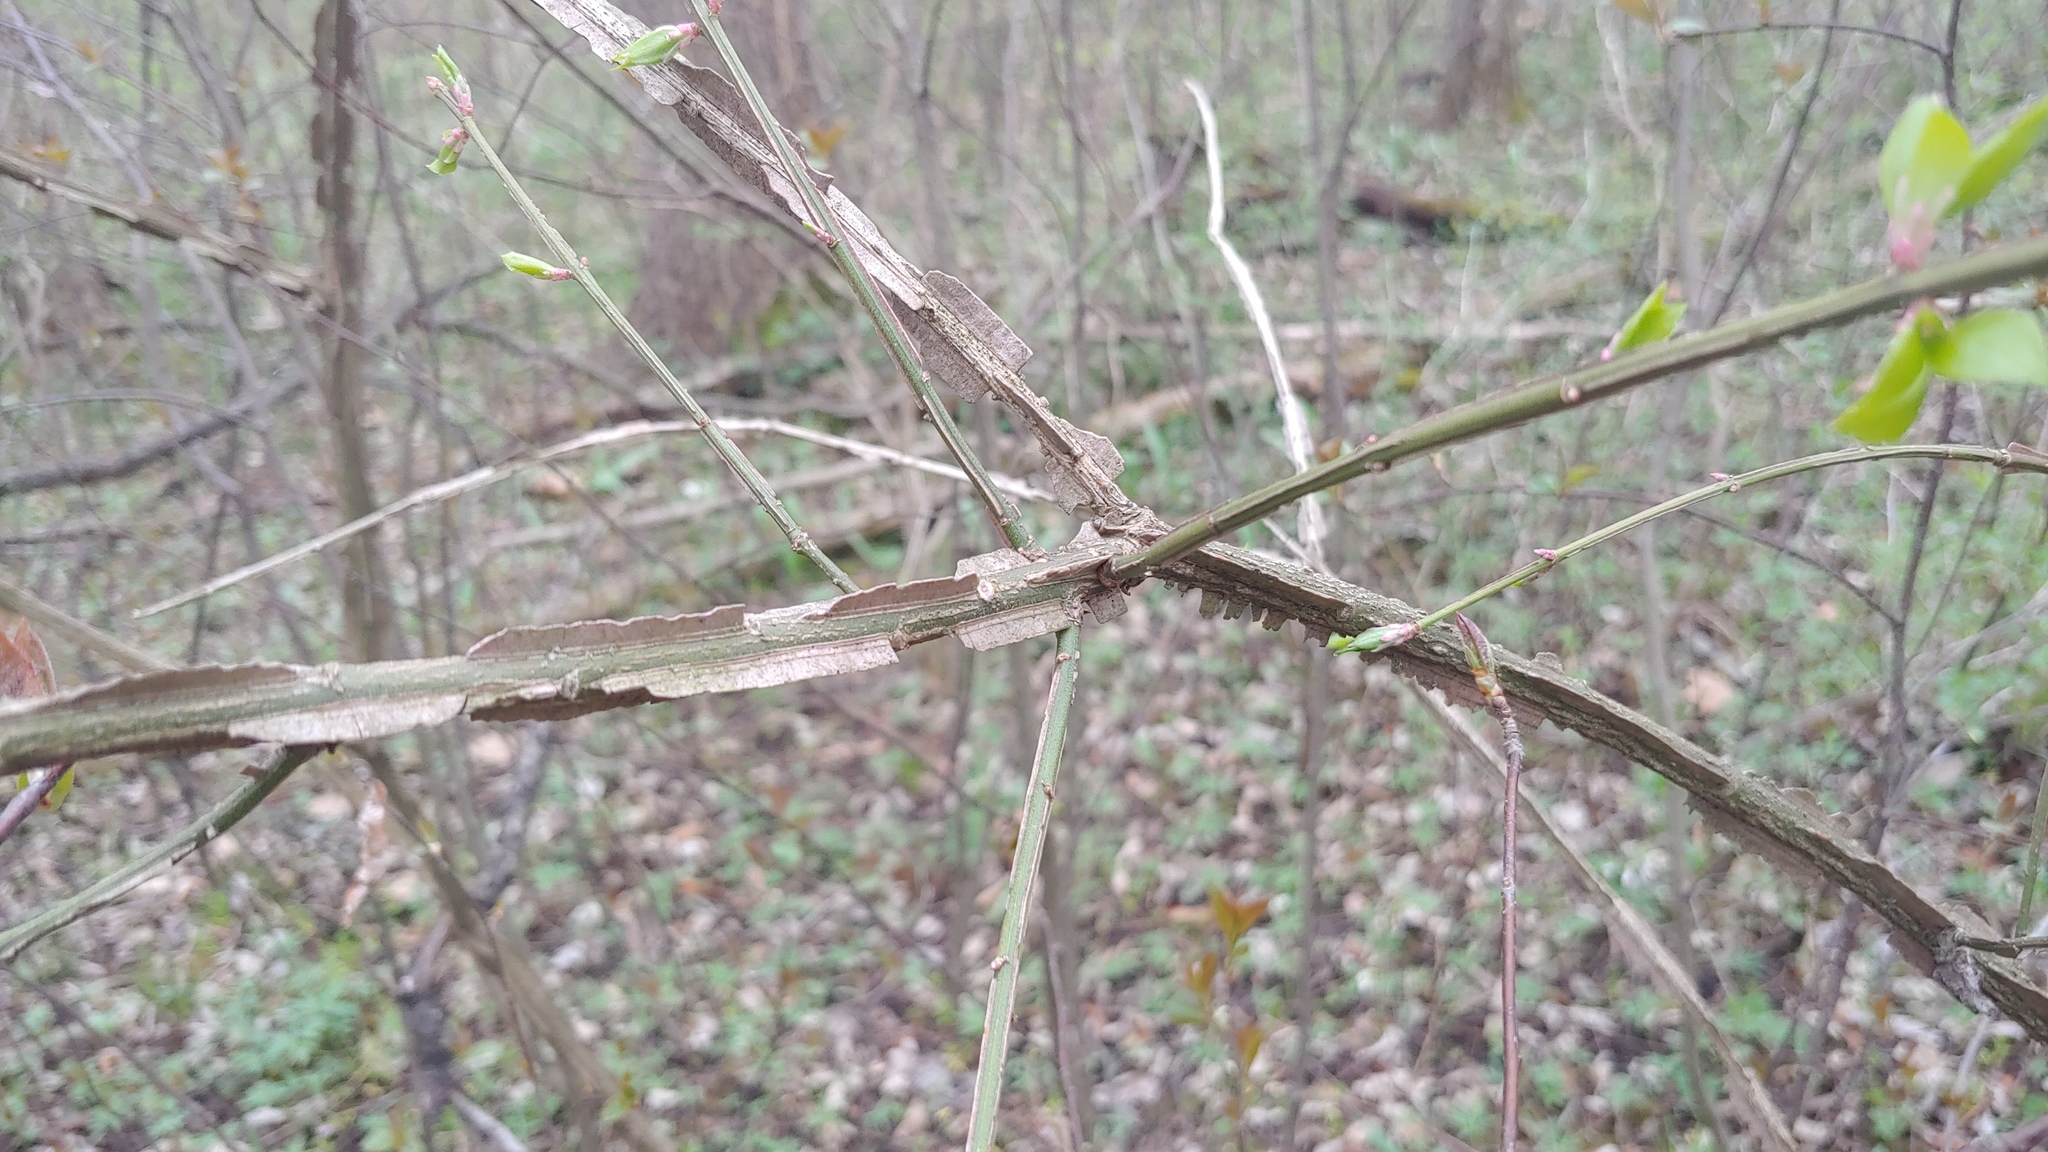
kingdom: Plantae
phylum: Tracheophyta
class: Magnoliopsida
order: Celastrales
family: Celastraceae
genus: Euonymus
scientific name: Euonymus alatus
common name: Winged euonymus
